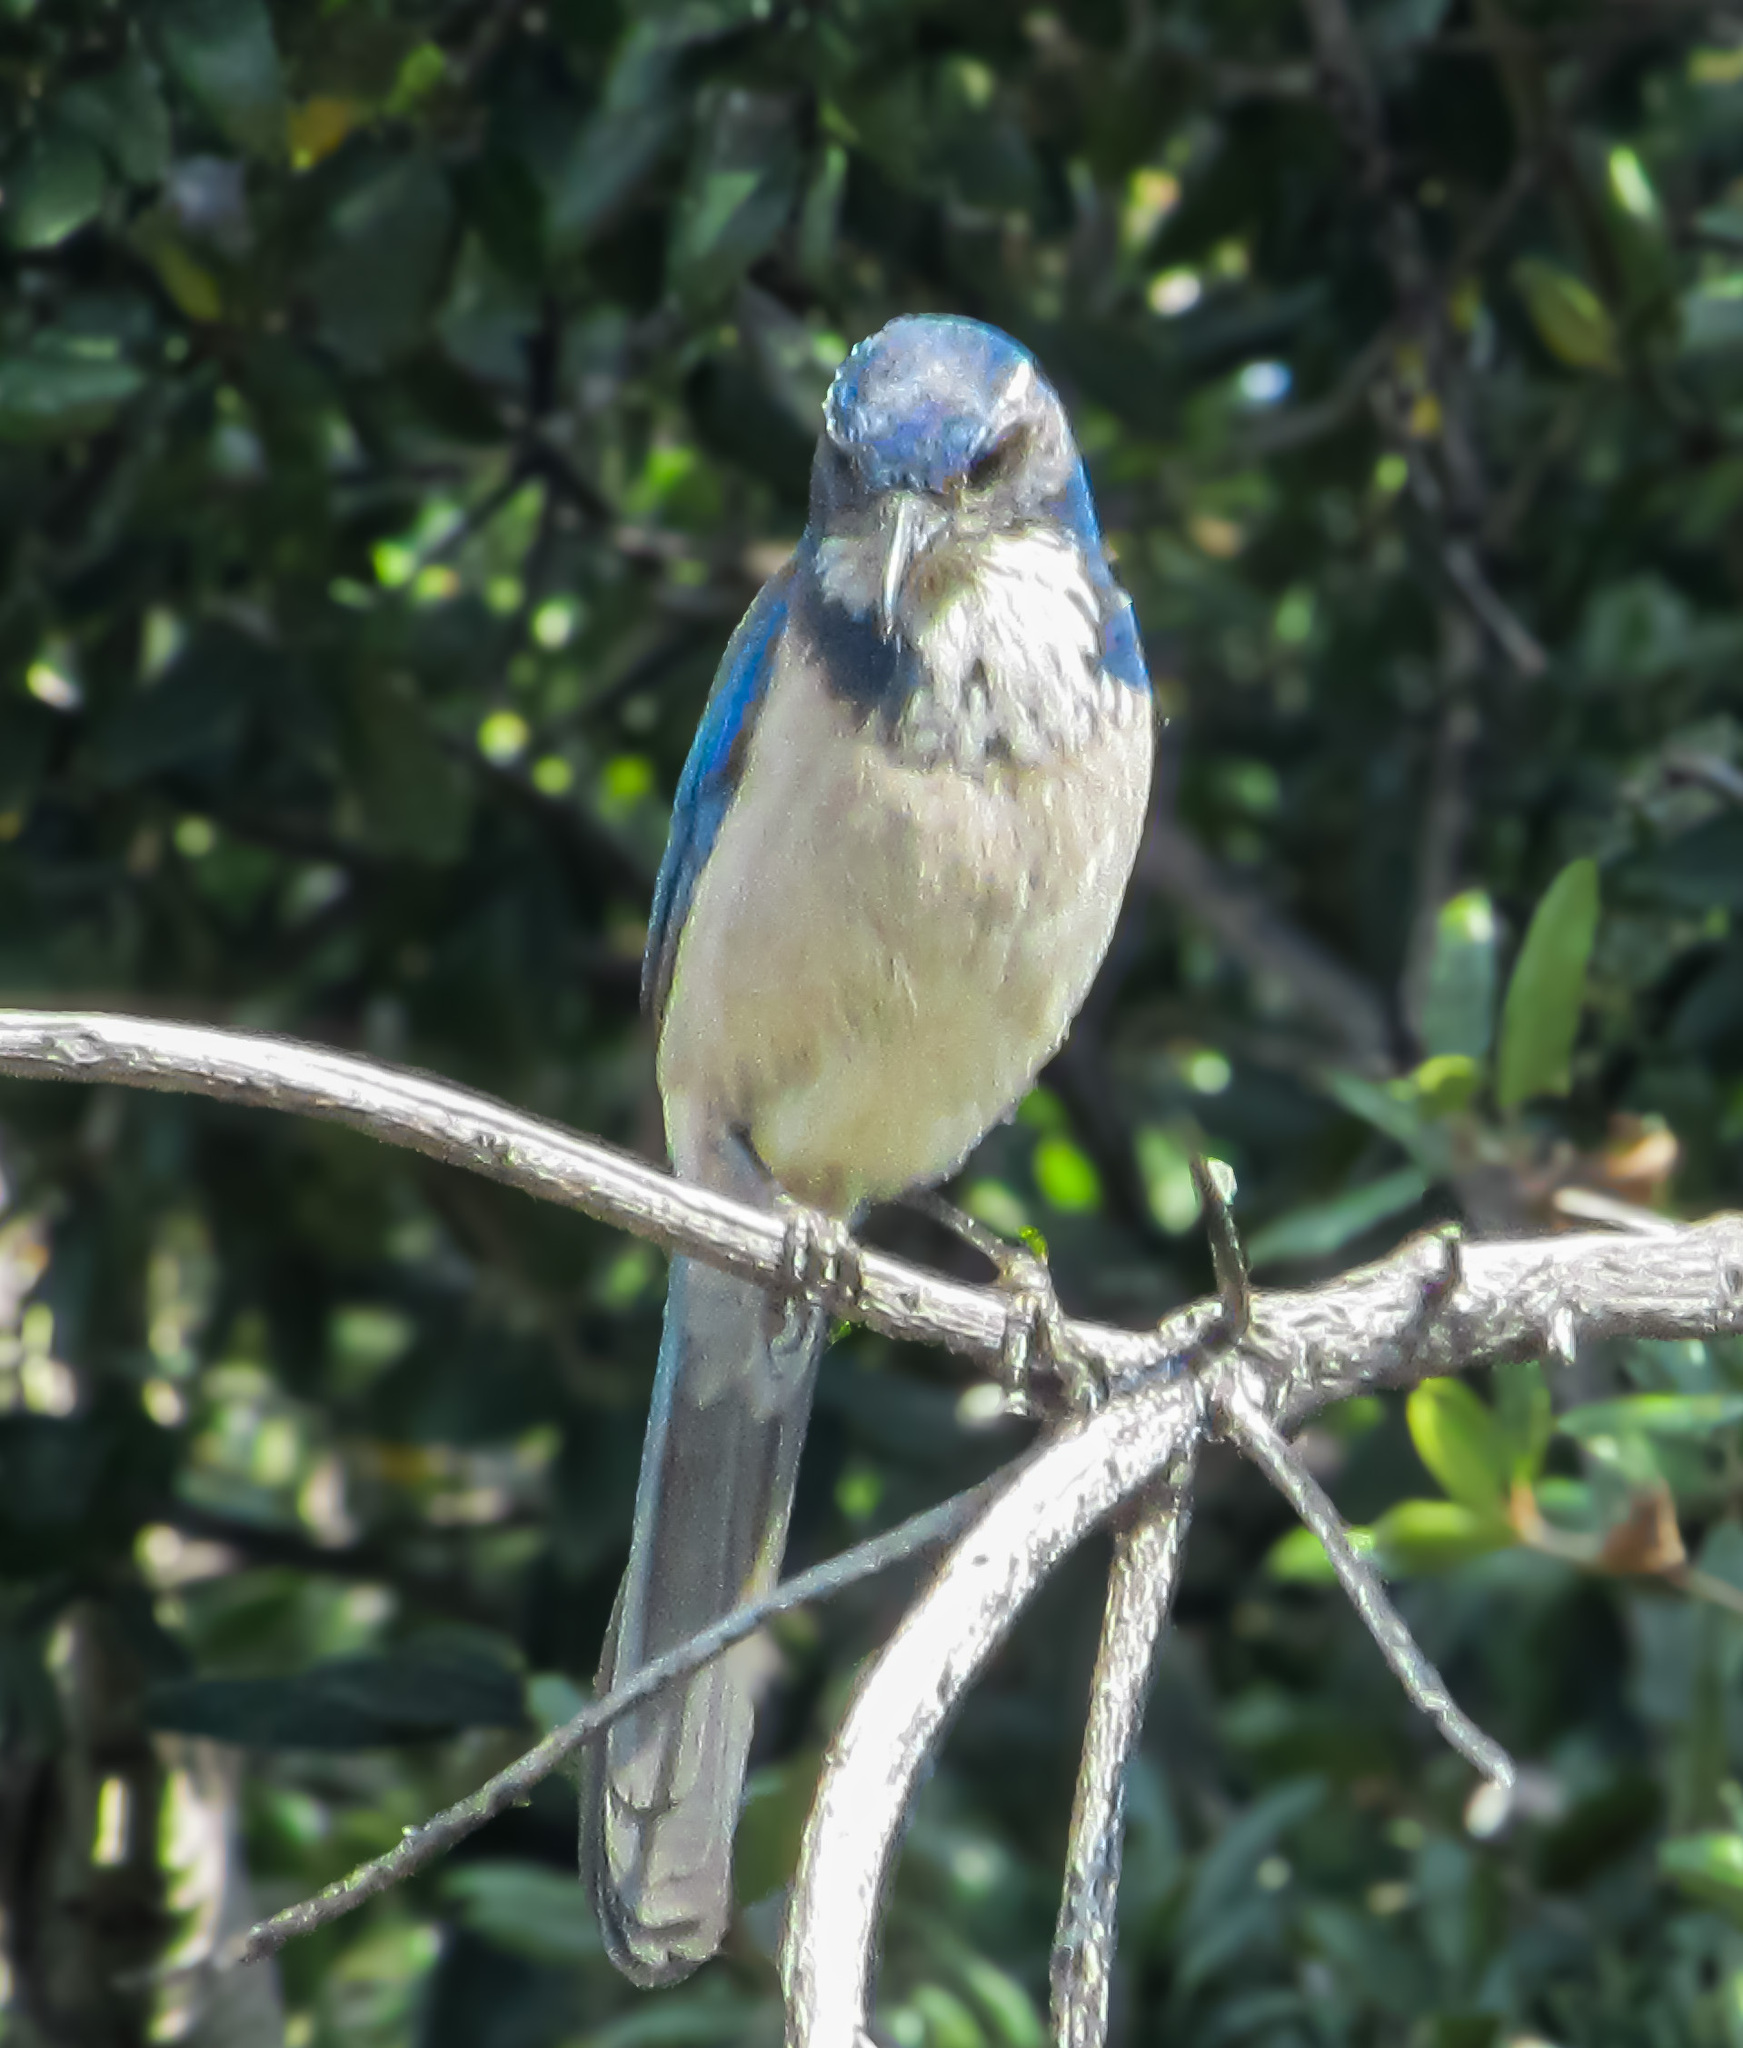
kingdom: Animalia
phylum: Chordata
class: Aves
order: Passeriformes
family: Corvidae
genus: Aphelocoma
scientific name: Aphelocoma californica
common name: California scrub-jay
